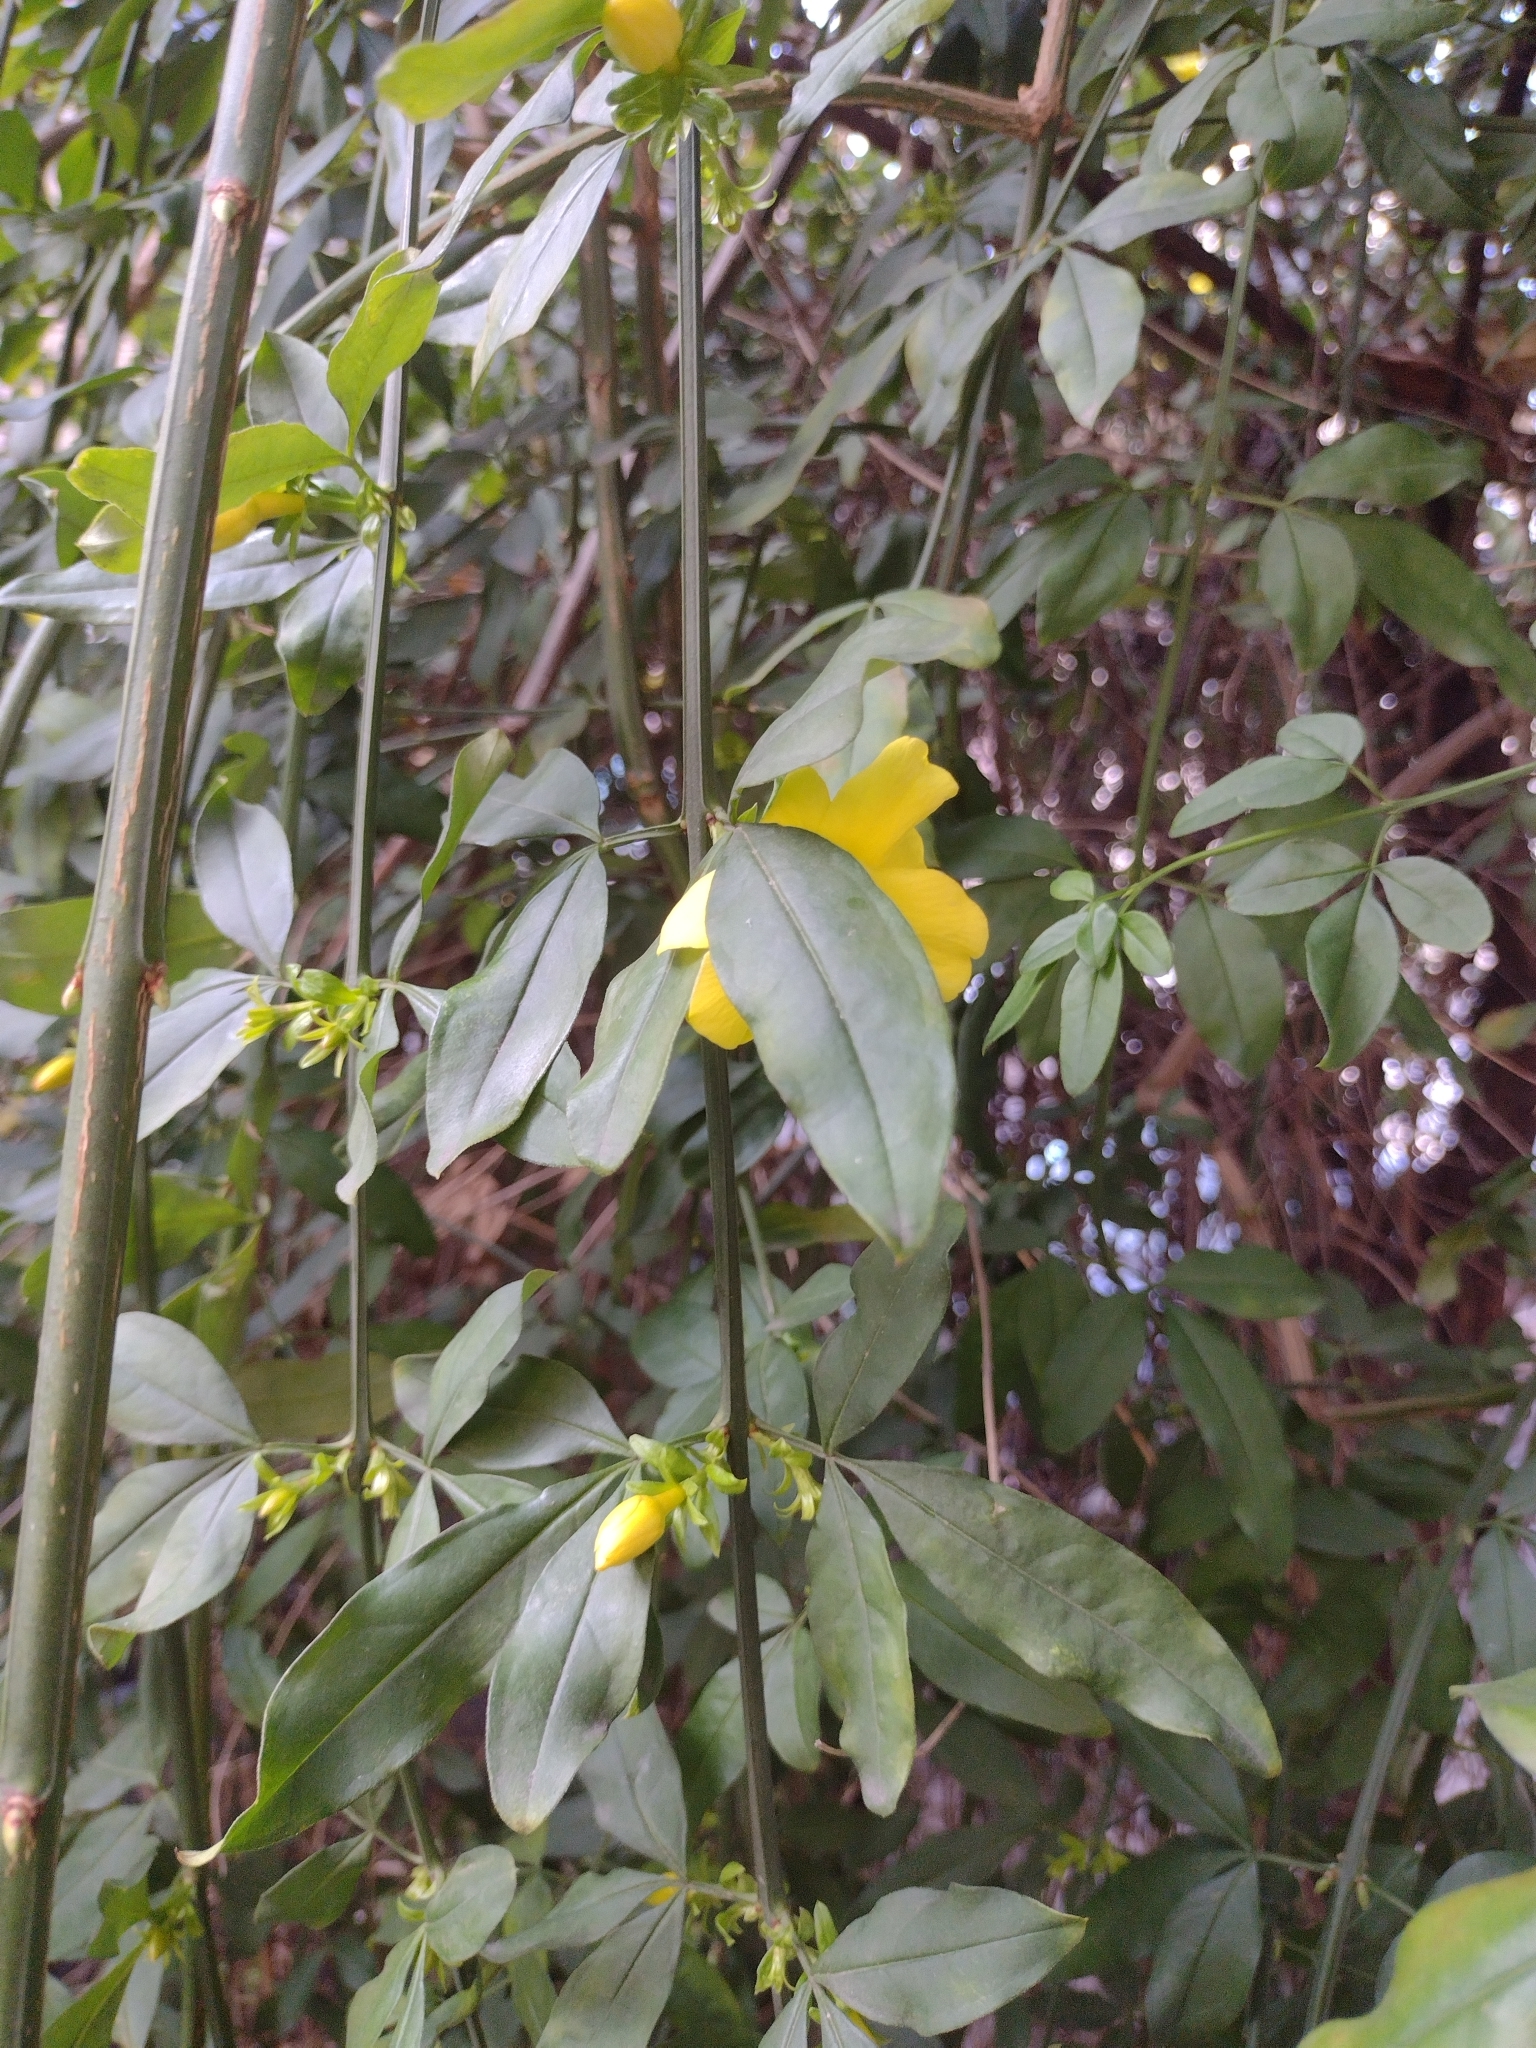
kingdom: Plantae
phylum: Tracheophyta
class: Magnoliopsida
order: Lamiales
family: Oleaceae
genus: Jasminum
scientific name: Jasminum mesnyi
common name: Japanese jasmine
